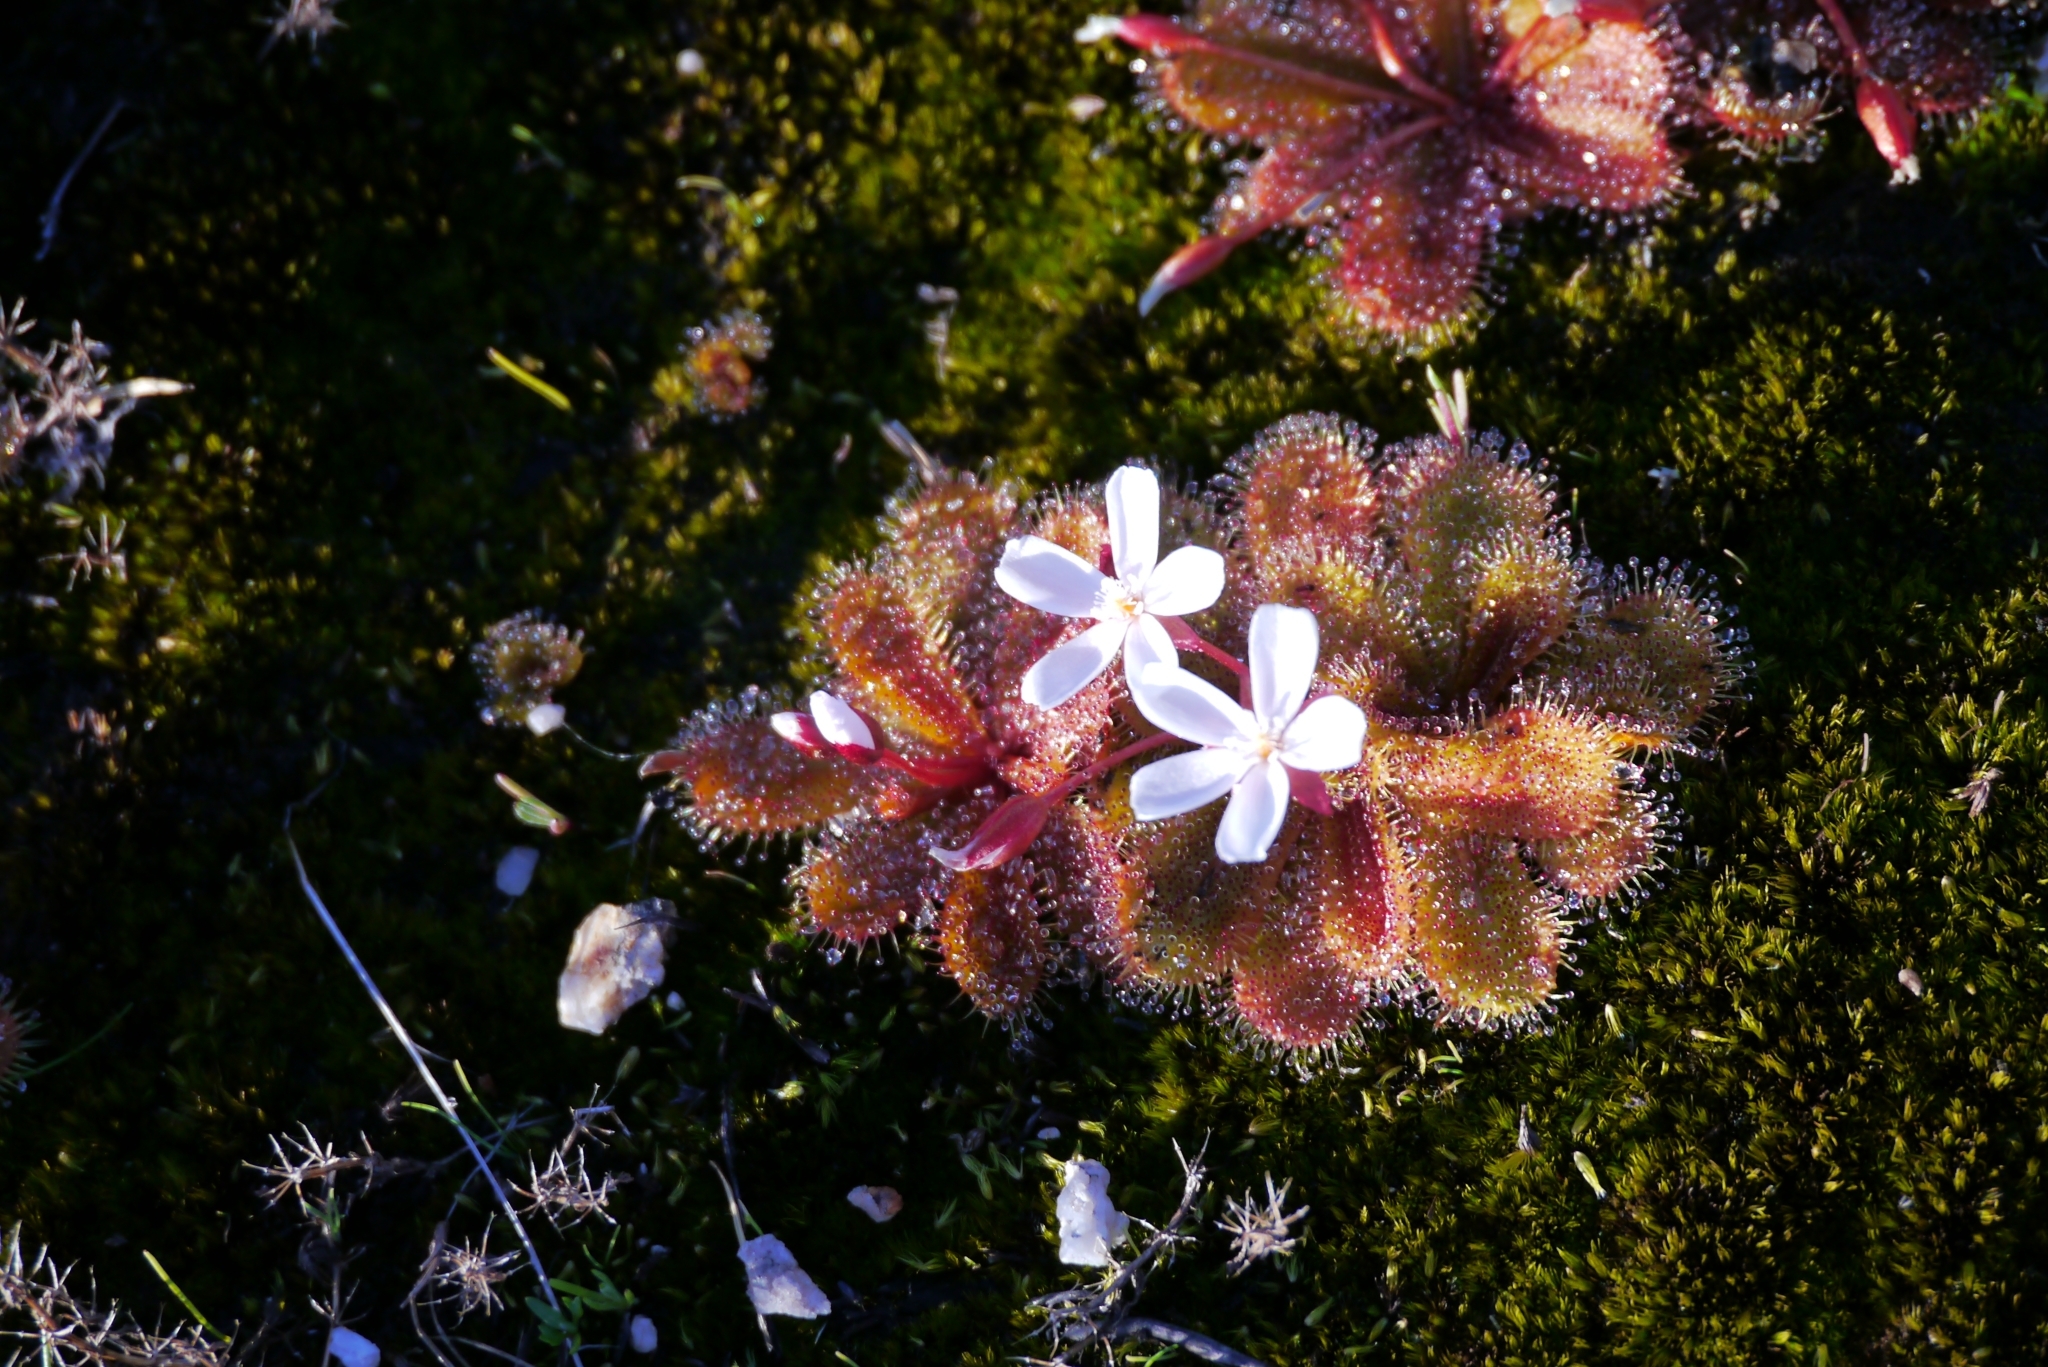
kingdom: Plantae
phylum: Tracheophyta
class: Magnoliopsida
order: Caryophyllales
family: Droseraceae
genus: Drosera
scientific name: Drosera bulbosa
